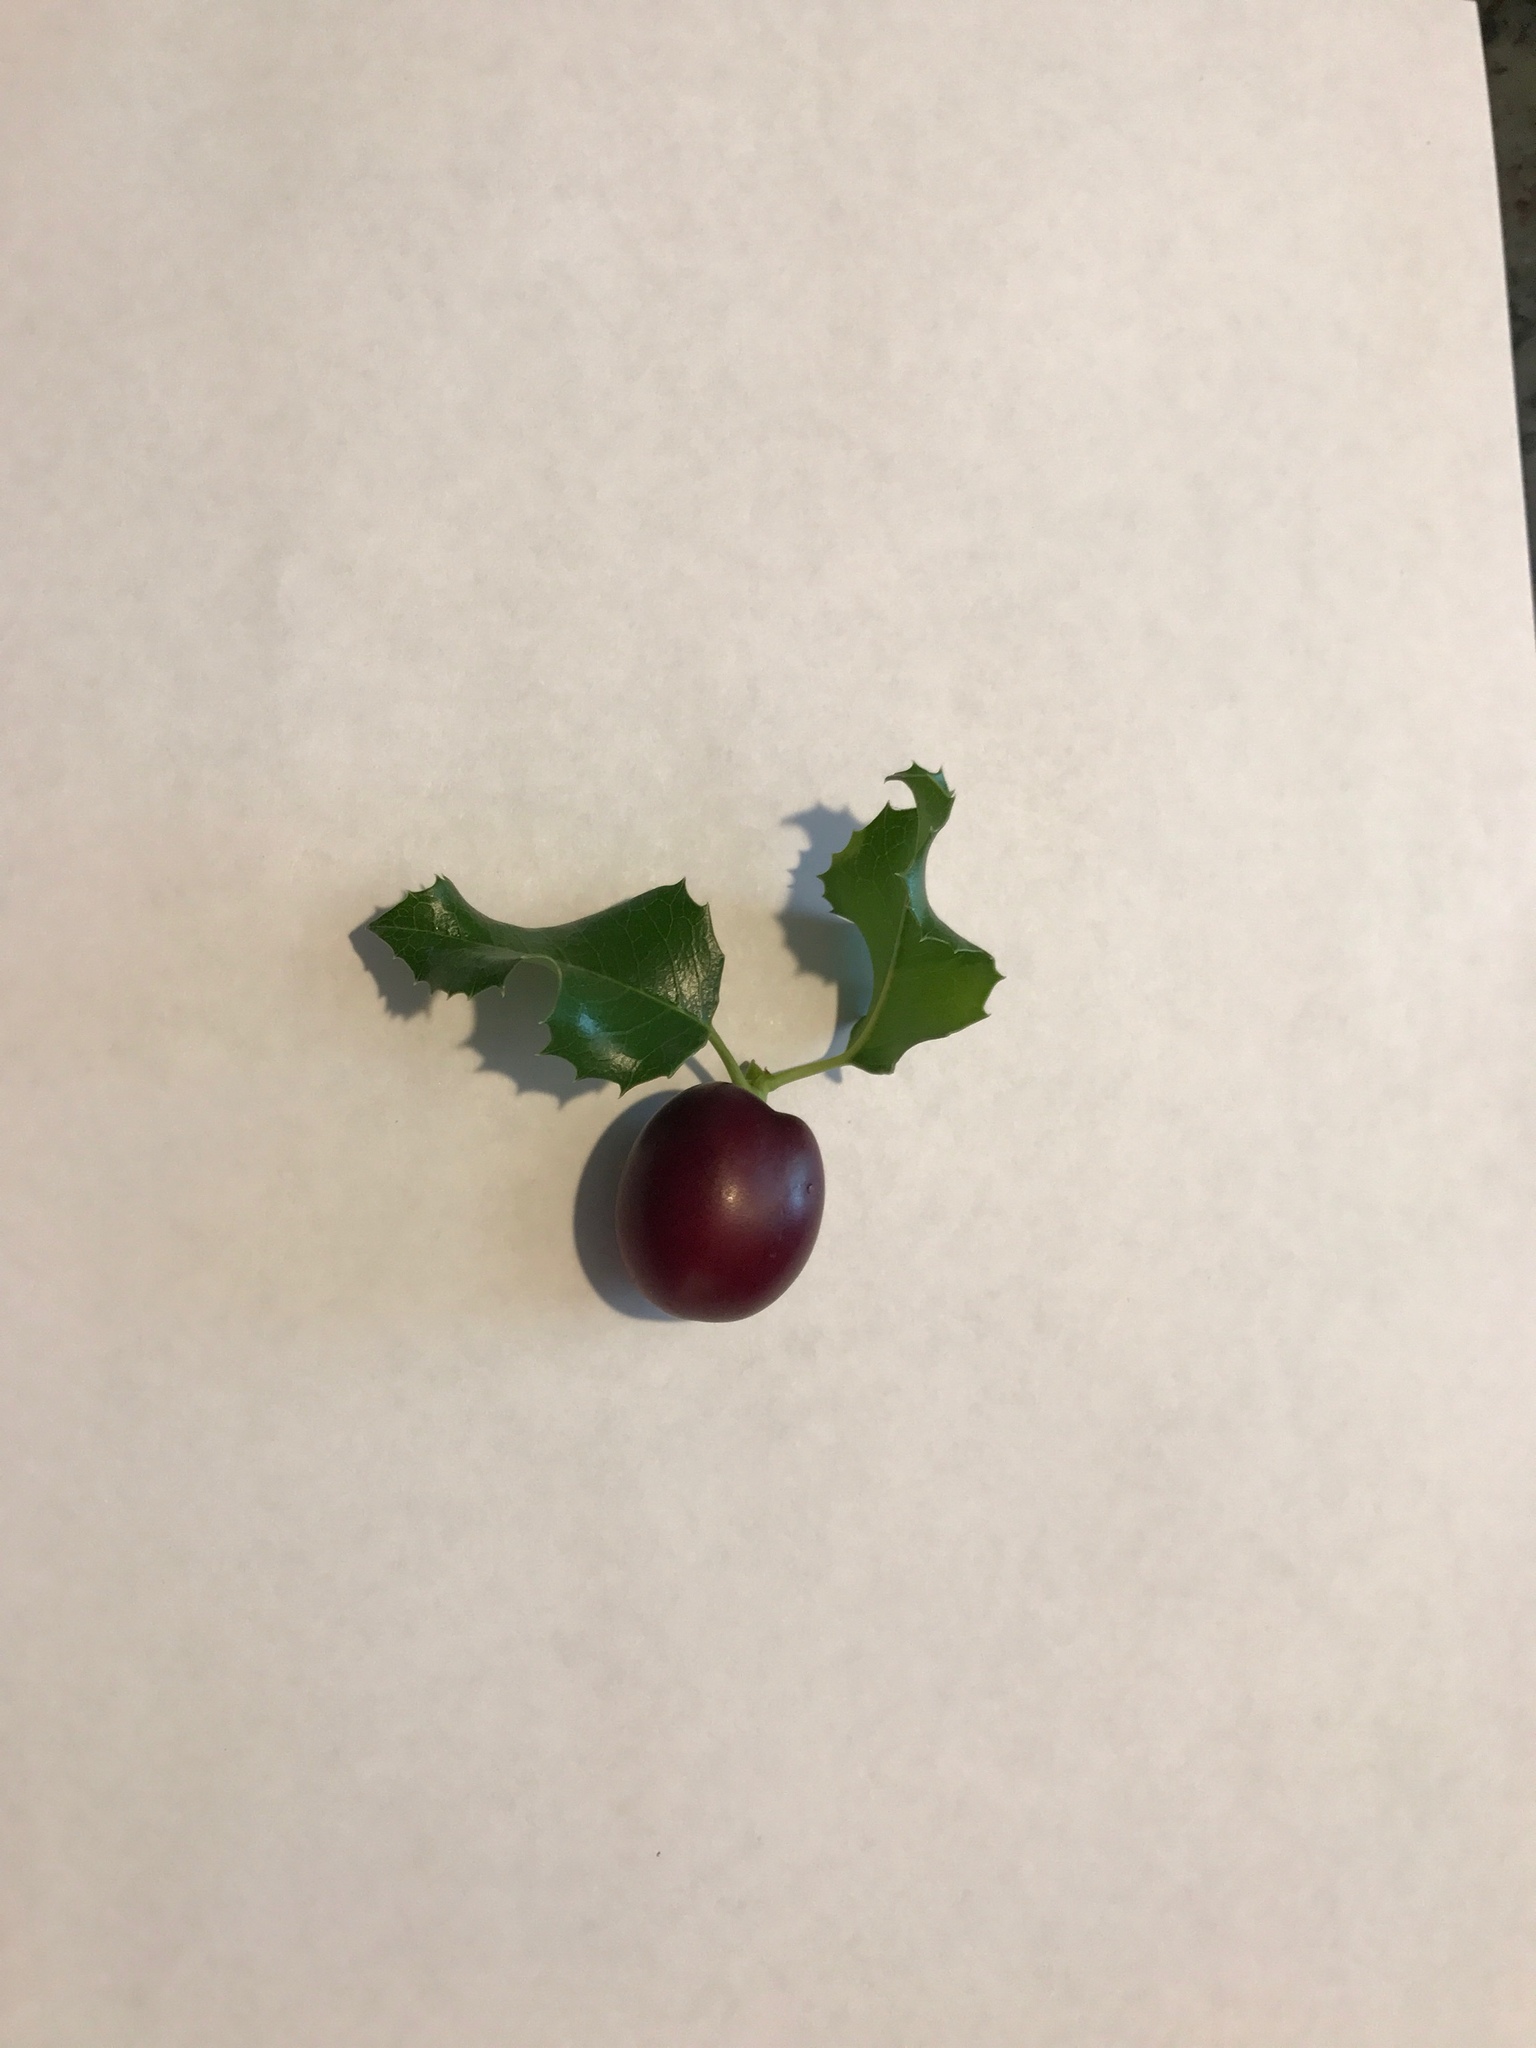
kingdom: Plantae
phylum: Tracheophyta
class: Magnoliopsida
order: Rosales
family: Rosaceae
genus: Prunus
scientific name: Prunus ilicifolia
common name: Hollyleaf cherry
